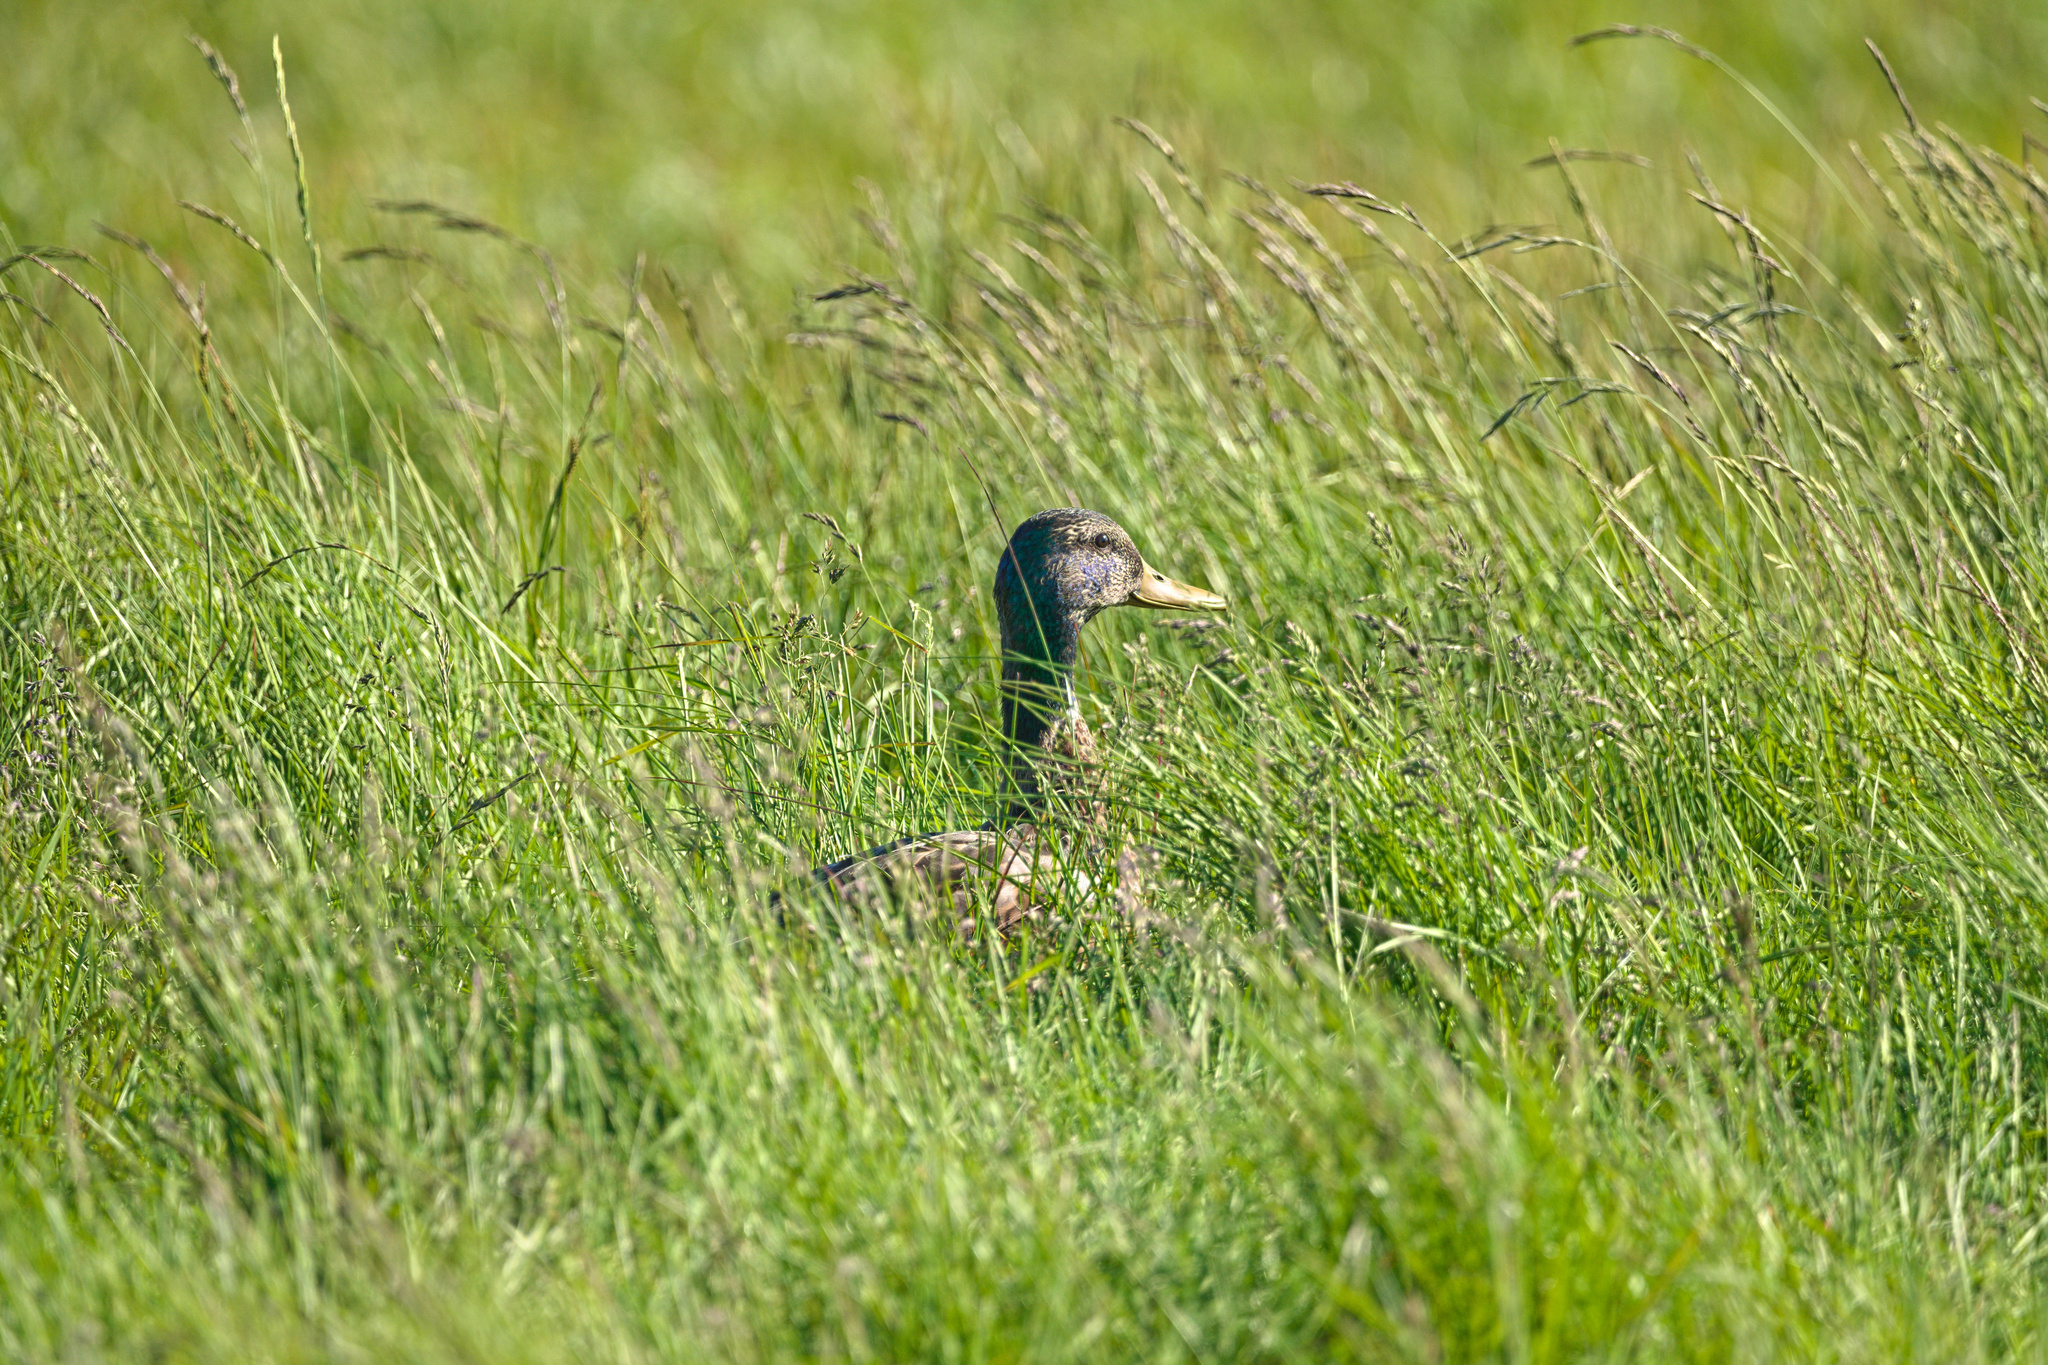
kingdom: Animalia
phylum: Chordata
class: Aves
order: Anseriformes
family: Anatidae
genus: Anas
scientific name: Anas platyrhynchos
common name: Mallard
